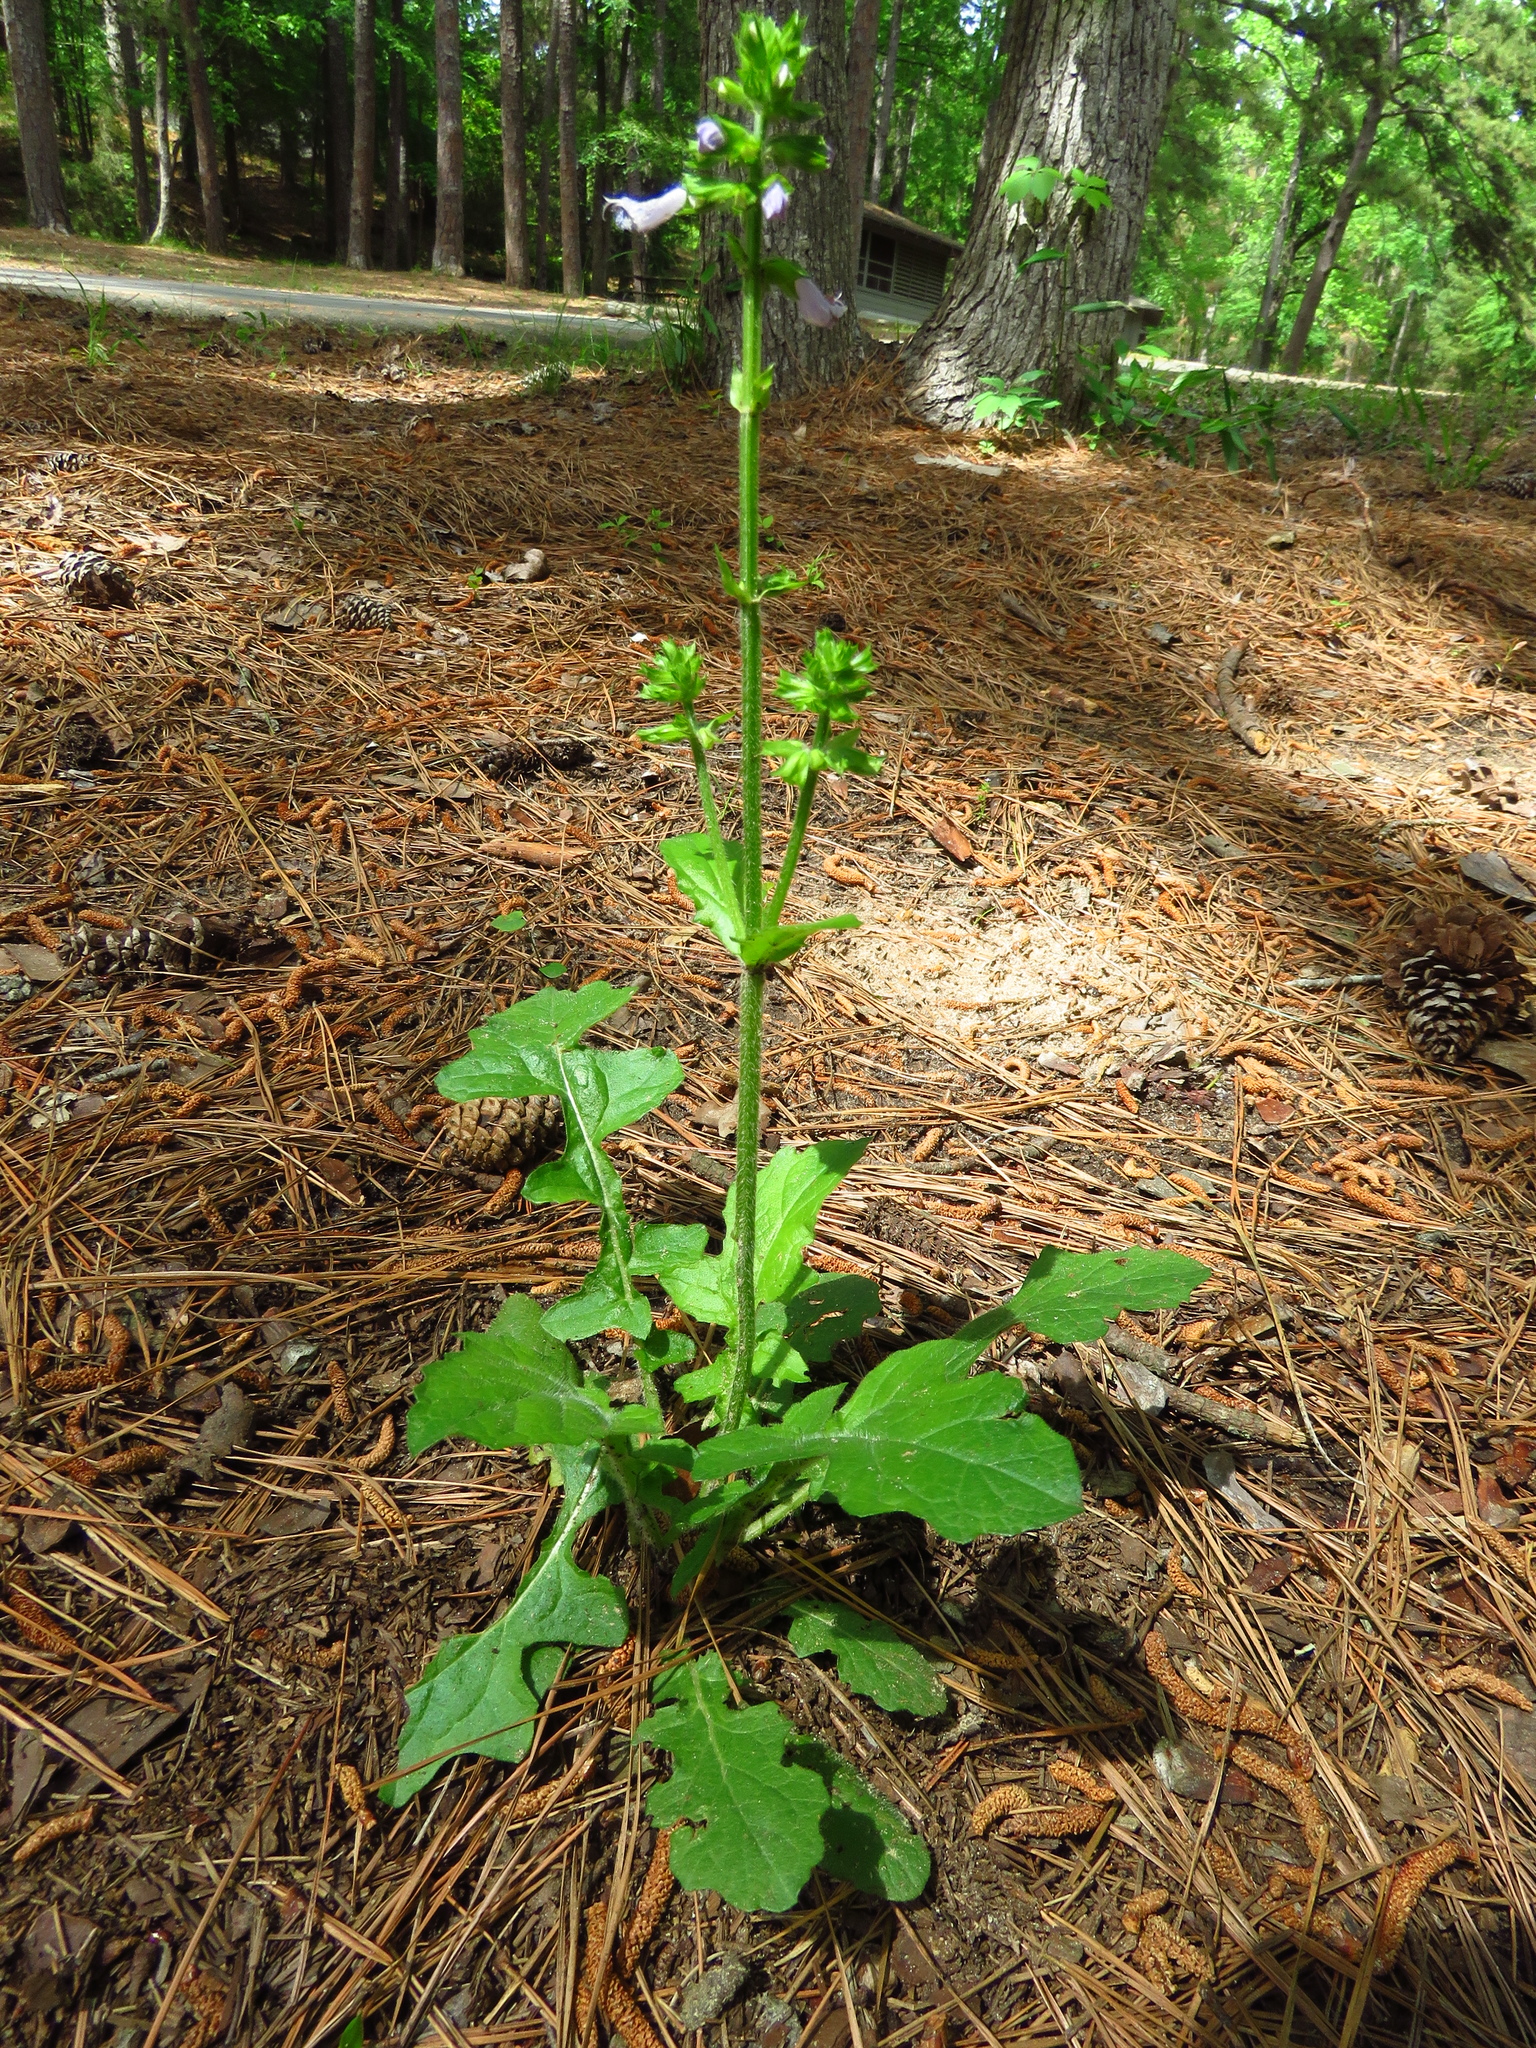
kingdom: Plantae
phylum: Tracheophyta
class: Magnoliopsida
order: Lamiales
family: Lamiaceae
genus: Salvia
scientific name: Salvia lyrata
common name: Cancerweed
